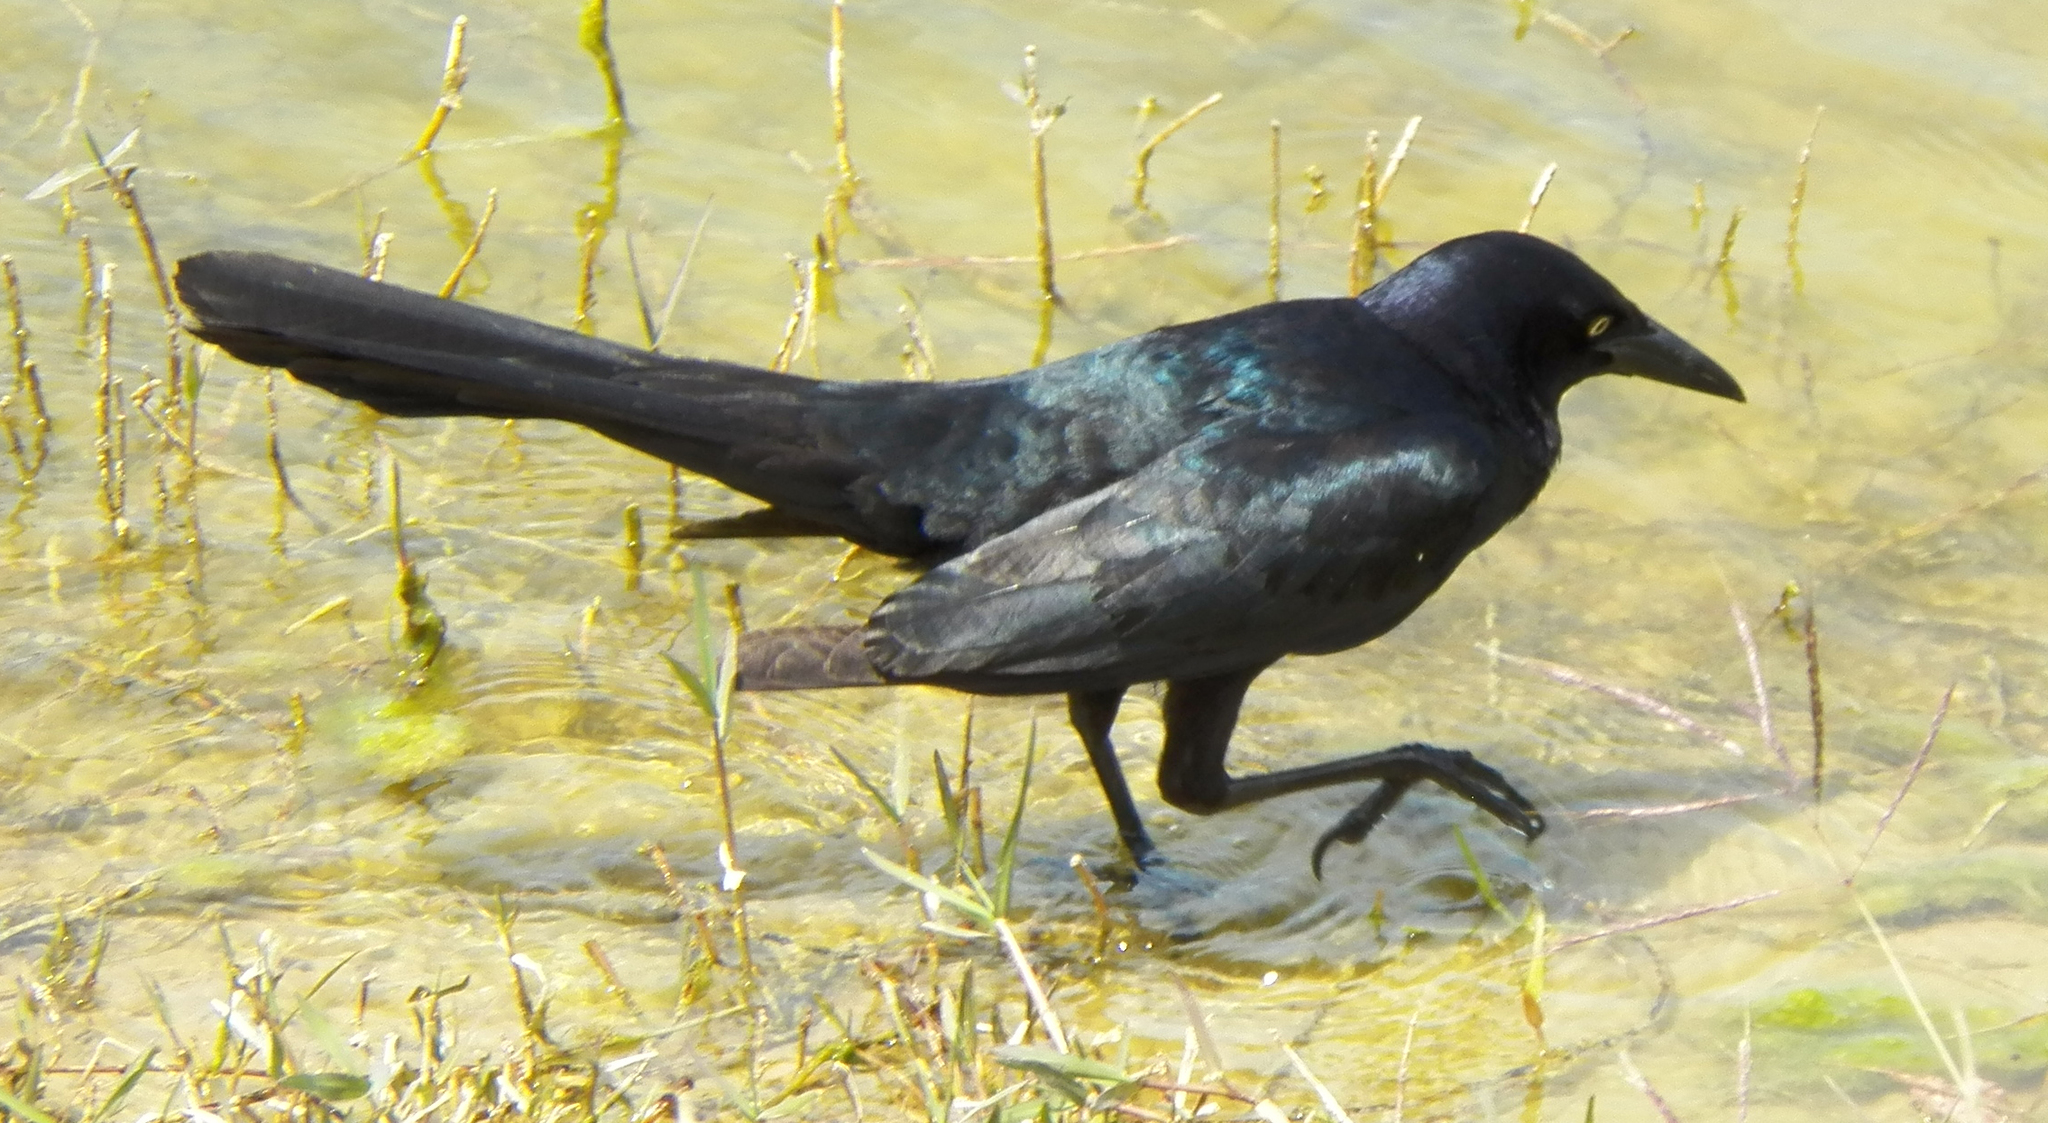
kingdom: Animalia
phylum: Chordata
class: Aves
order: Passeriformes
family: Icteridae
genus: Quiscalus
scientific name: Quiscalus mexicanus
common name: Great-tailed grackle
